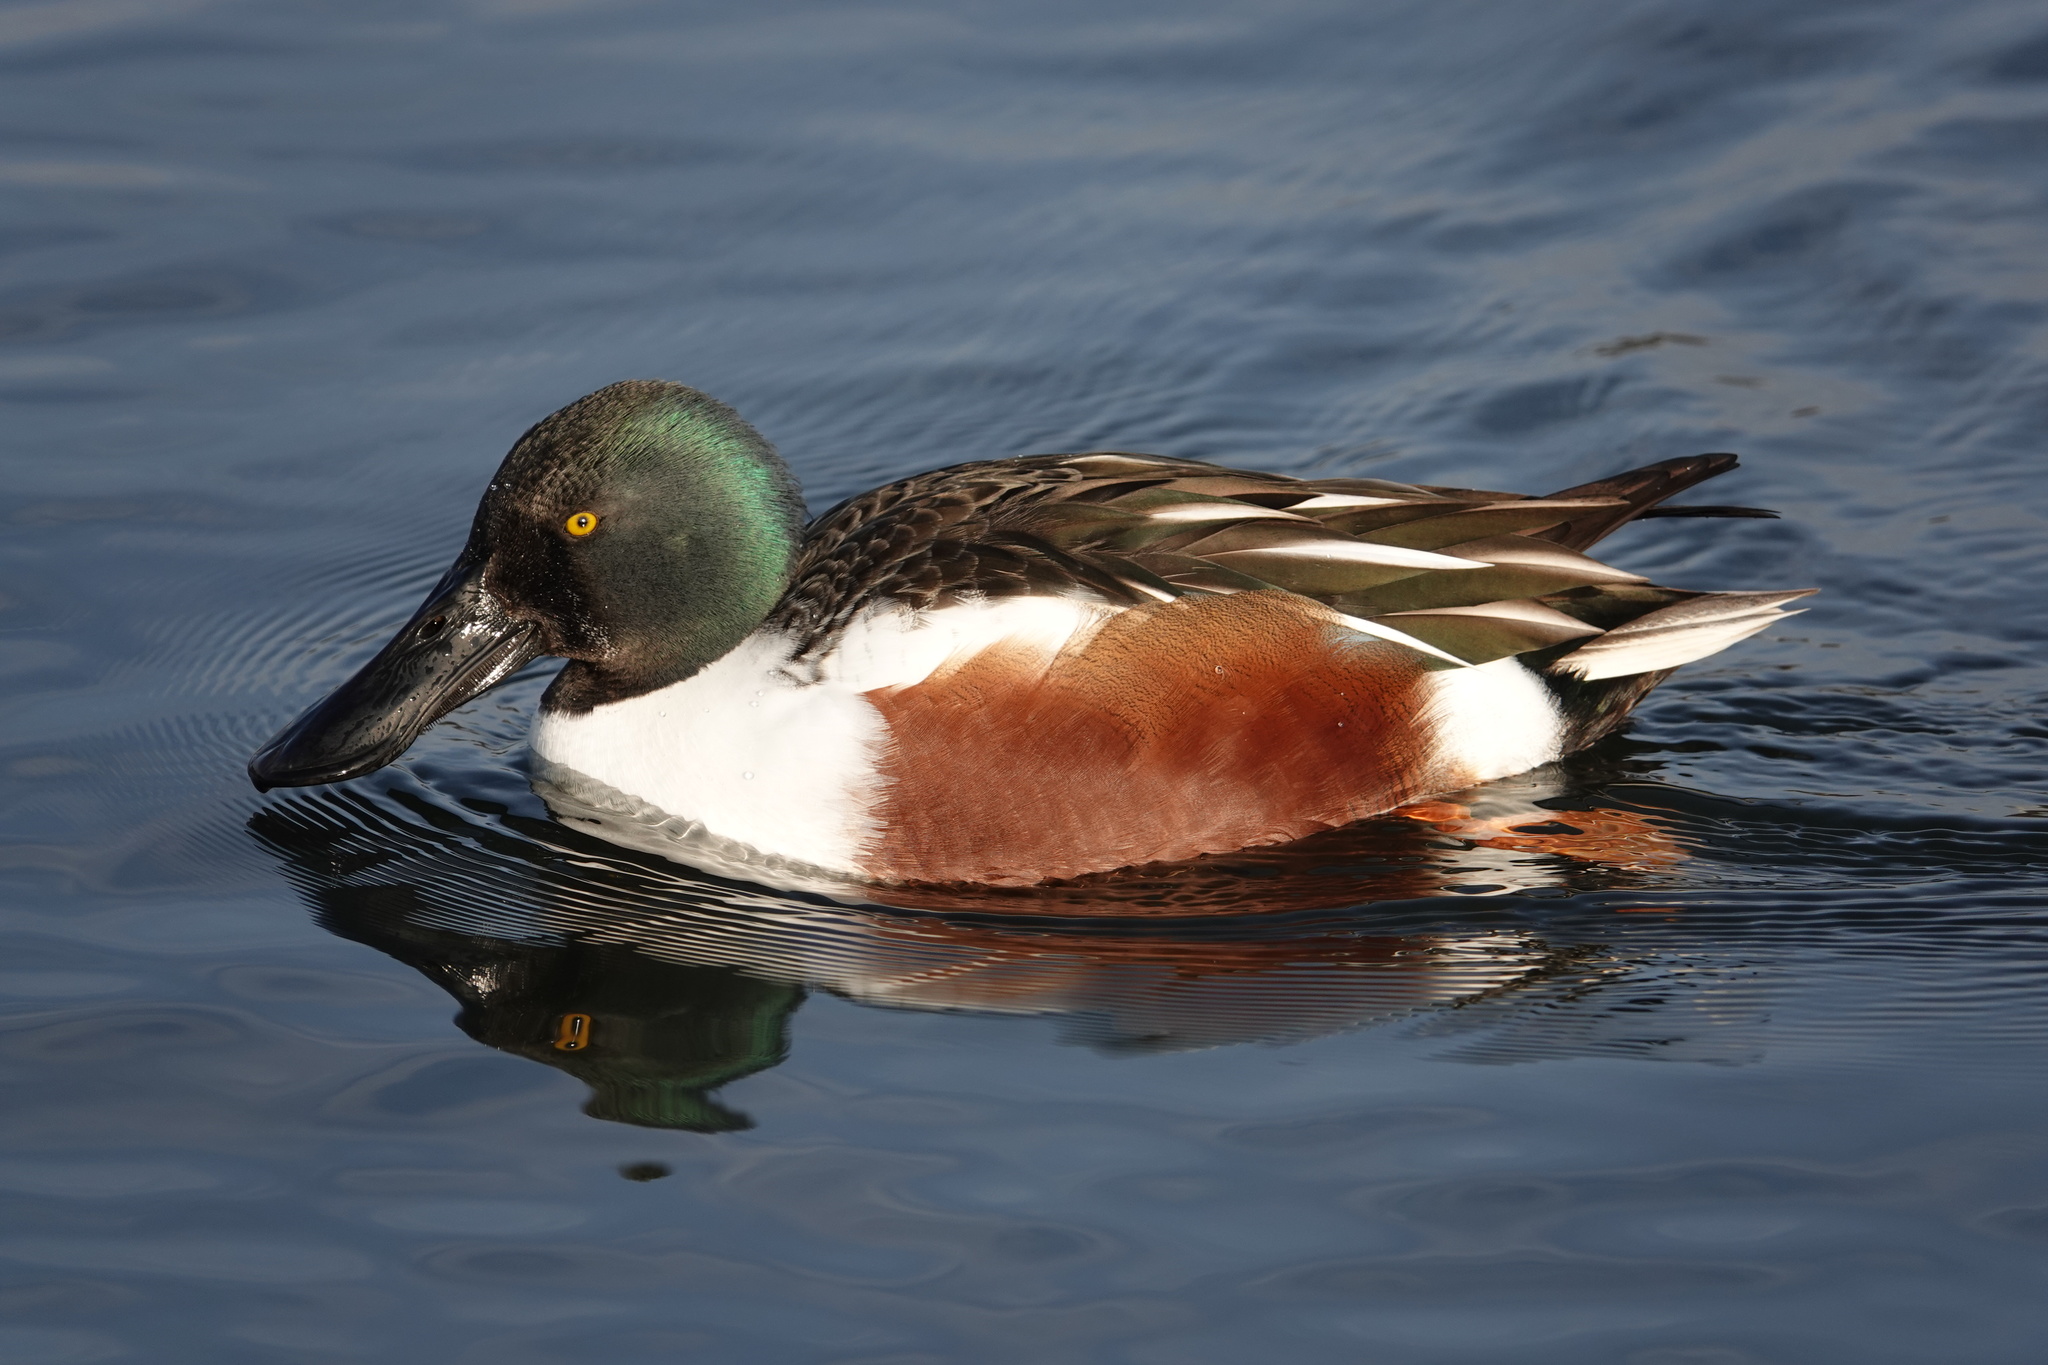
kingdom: Animalia
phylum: Chordata
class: Aves
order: Anseriformes
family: Anatidae
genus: Spatula
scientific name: Spatula clypeata
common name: Northern shoveler
